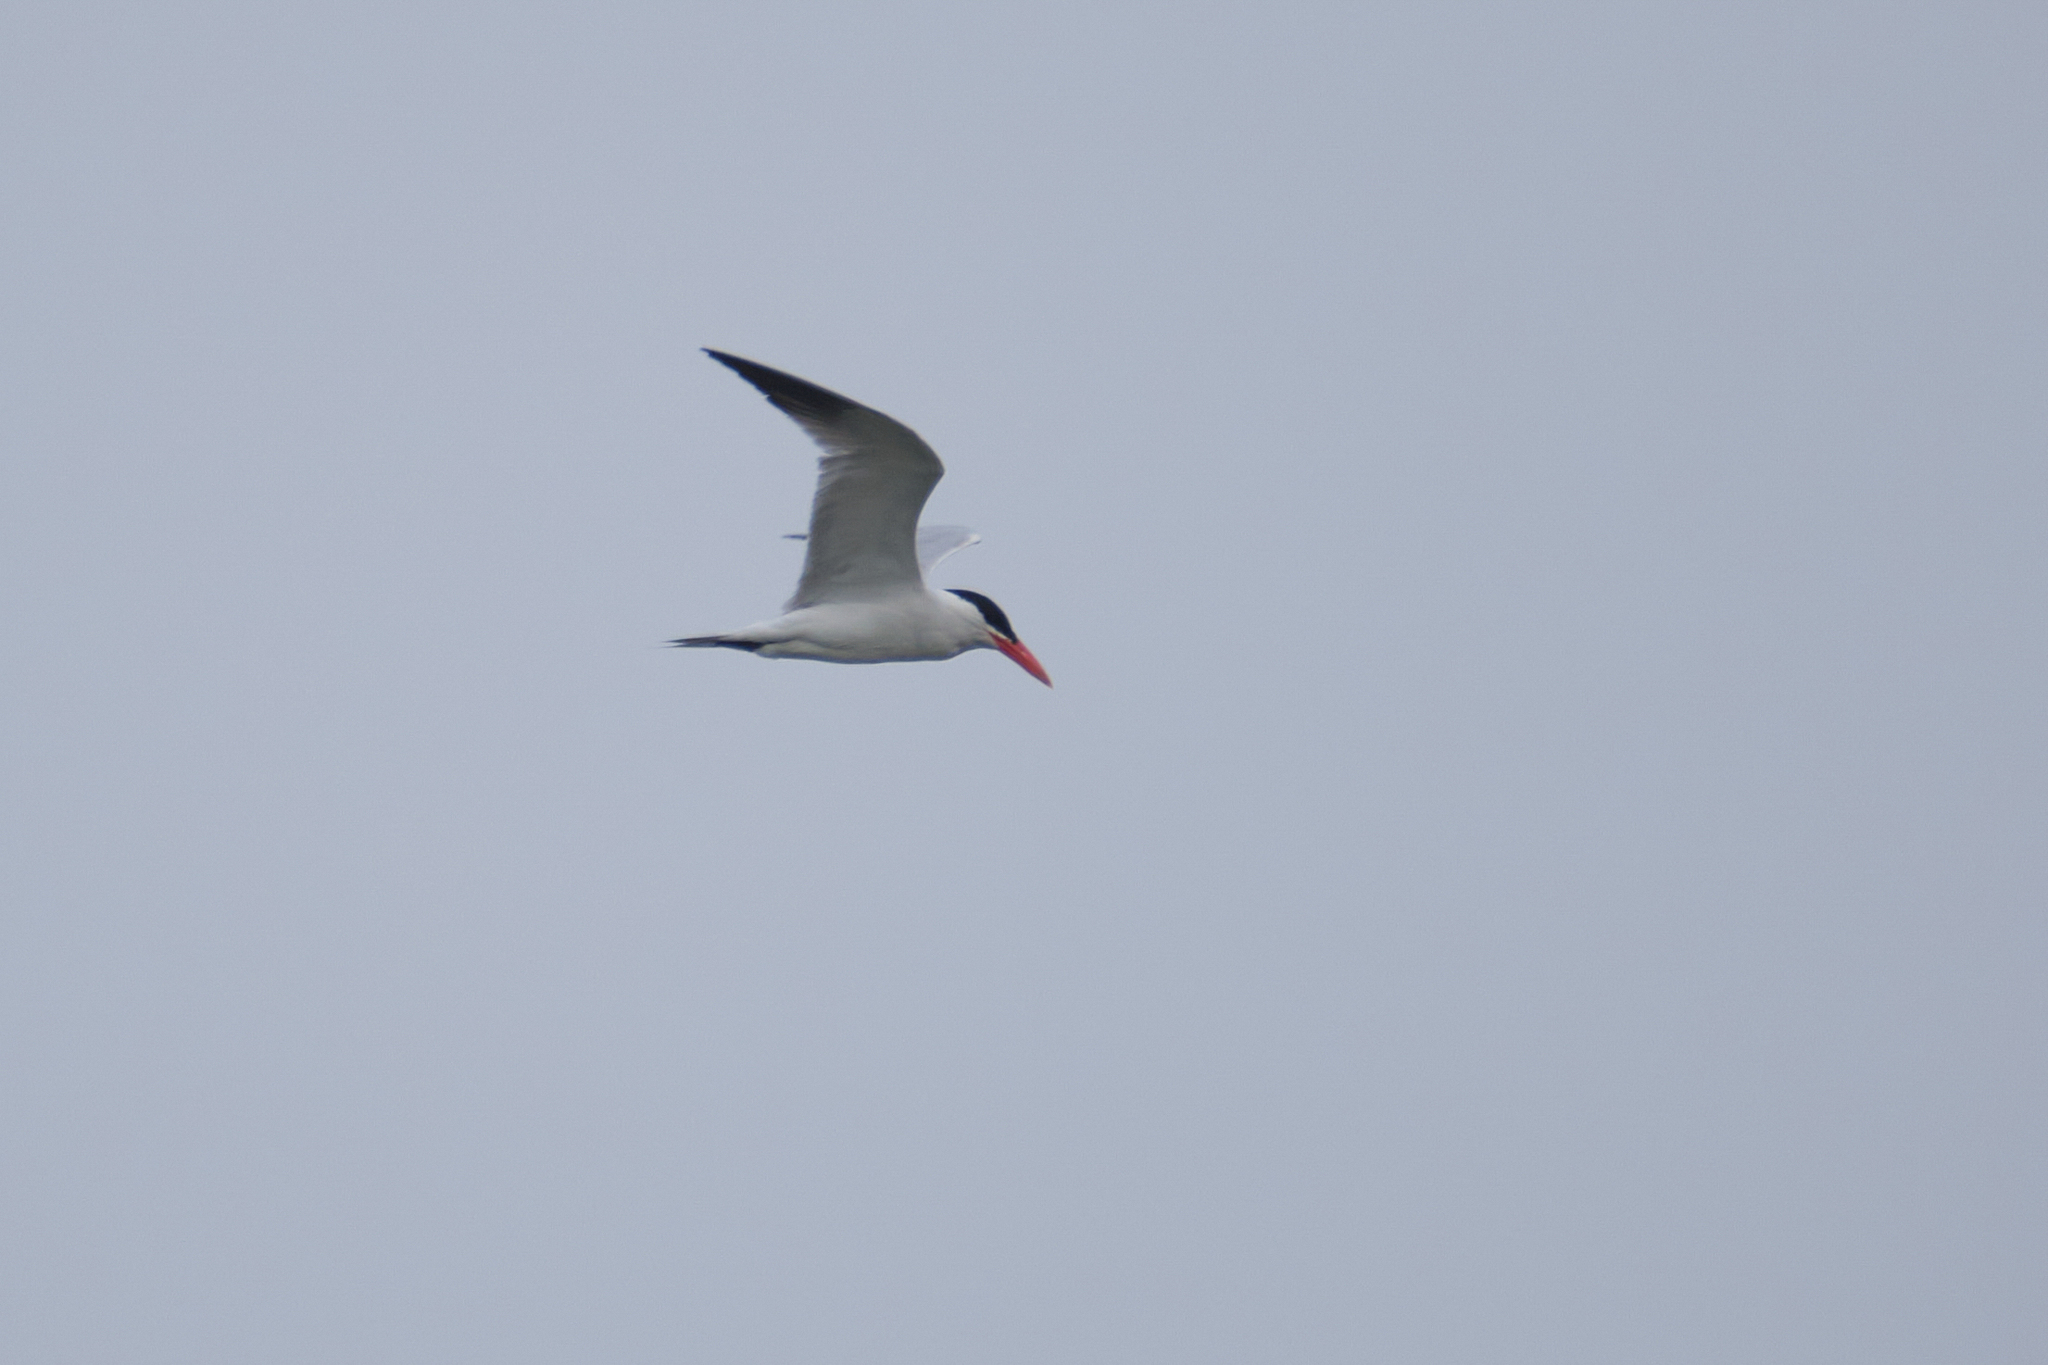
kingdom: Animalia
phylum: Chordata
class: Aves
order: Charadriiformes
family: Laridae
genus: Hydroprogne
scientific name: Hydroprogne caspia
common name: Caspian tern
